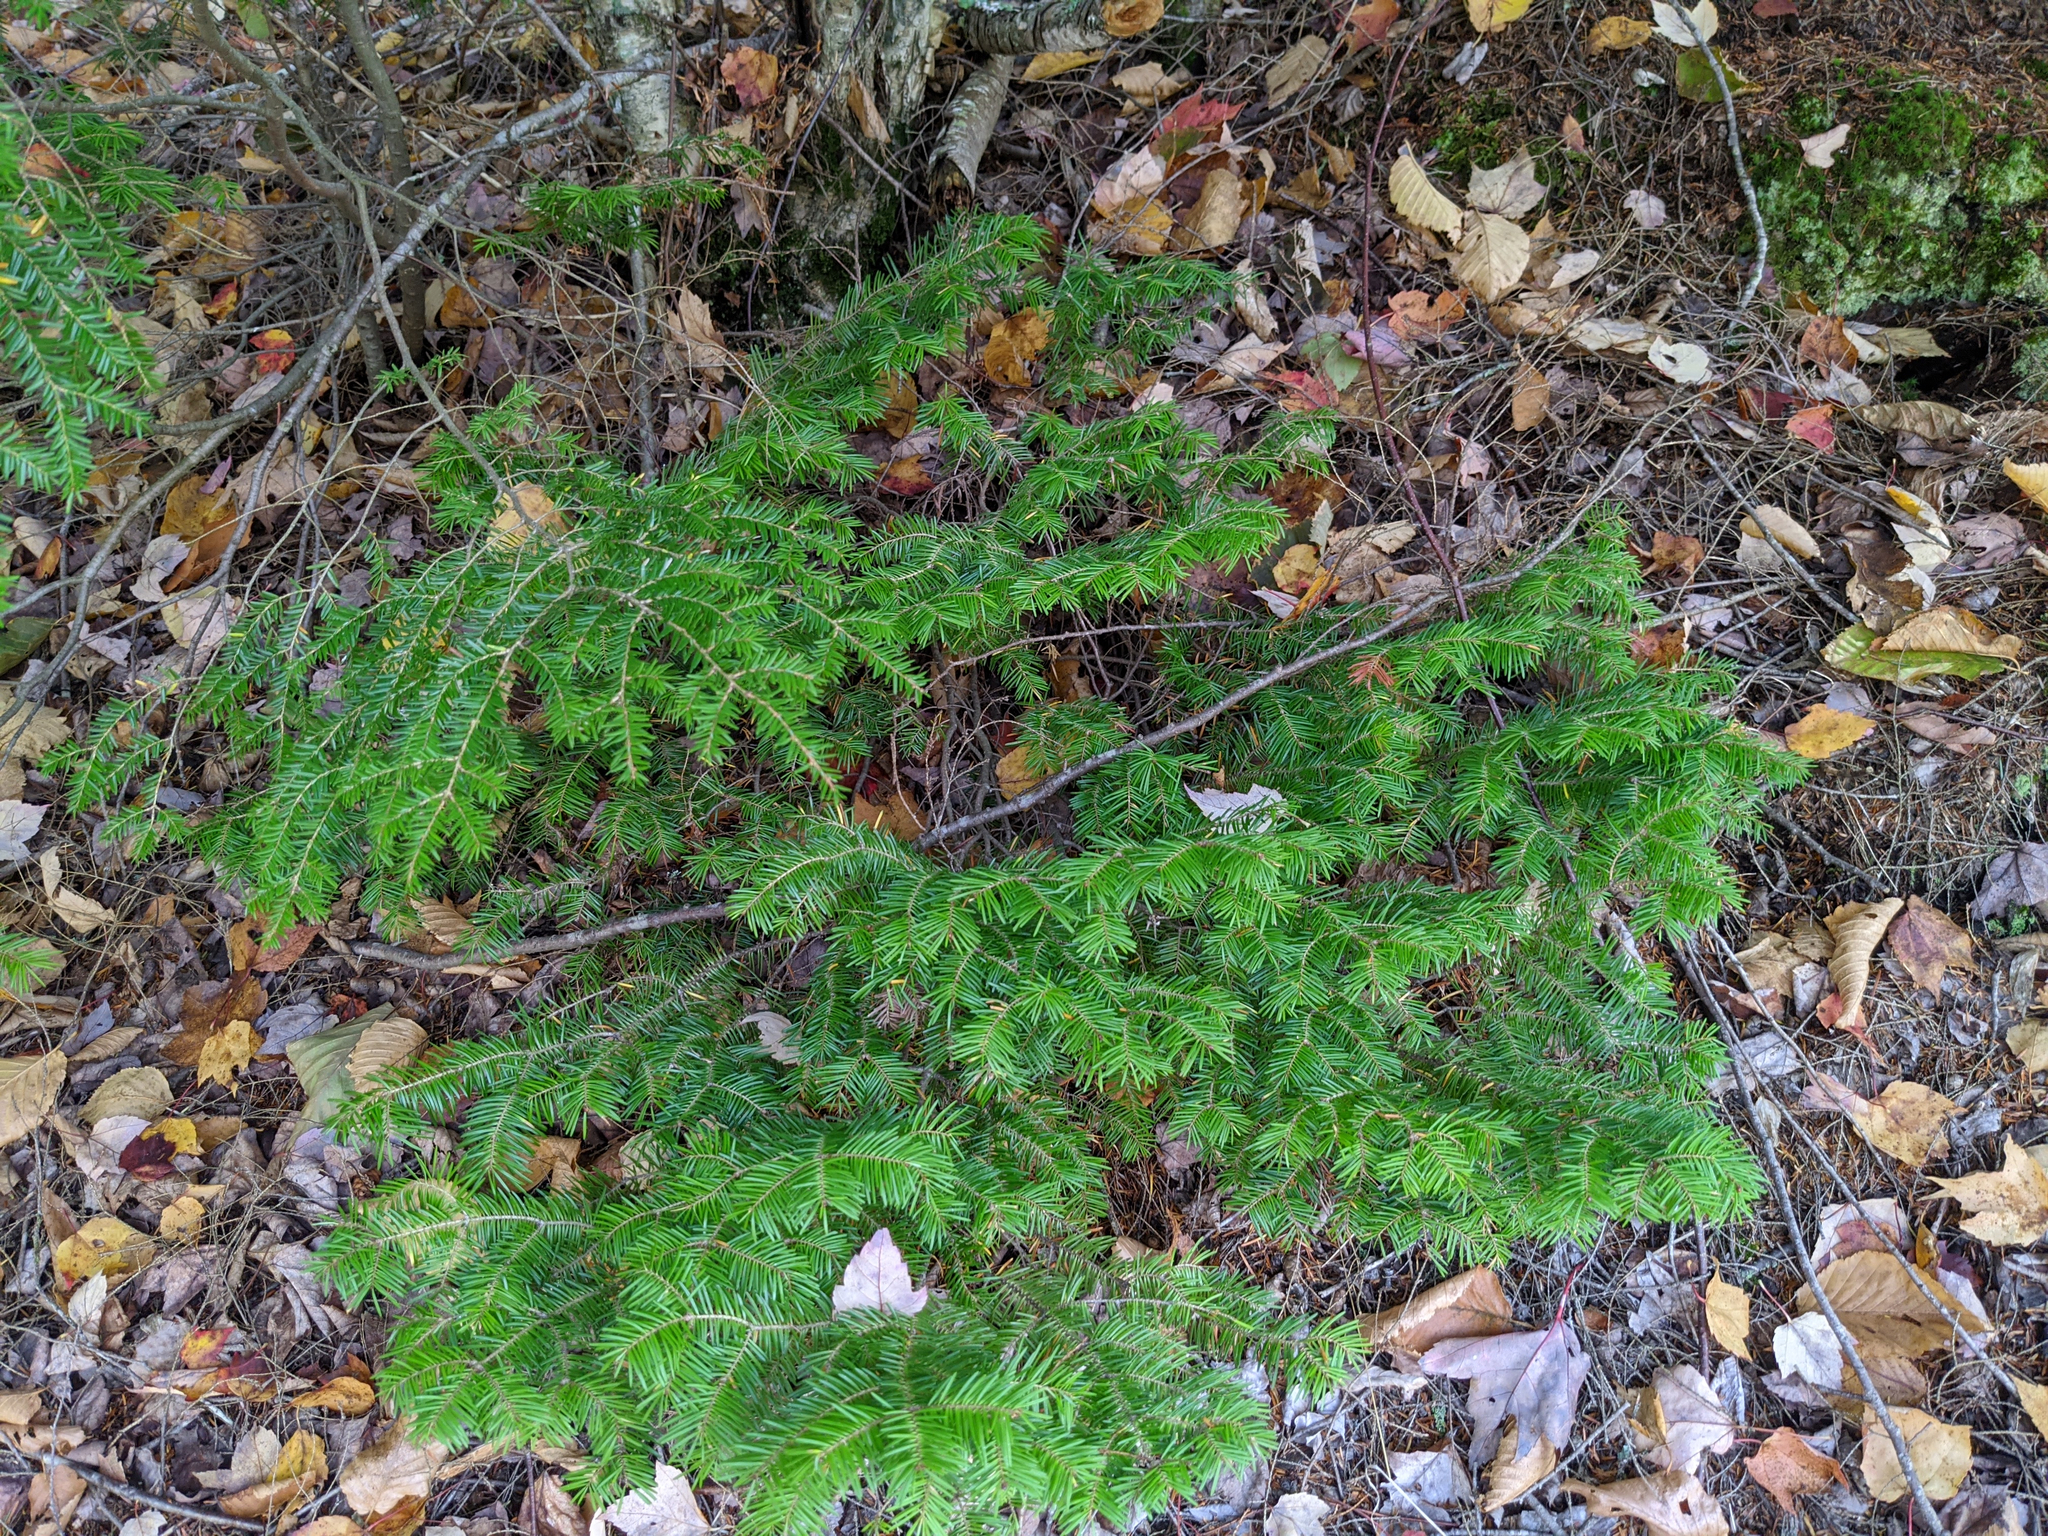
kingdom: Plantae
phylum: Tracheophyta
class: Pinopsida
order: Pinales
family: Pinaceae
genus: Abies
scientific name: Abies balsamea
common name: Balsam fir
